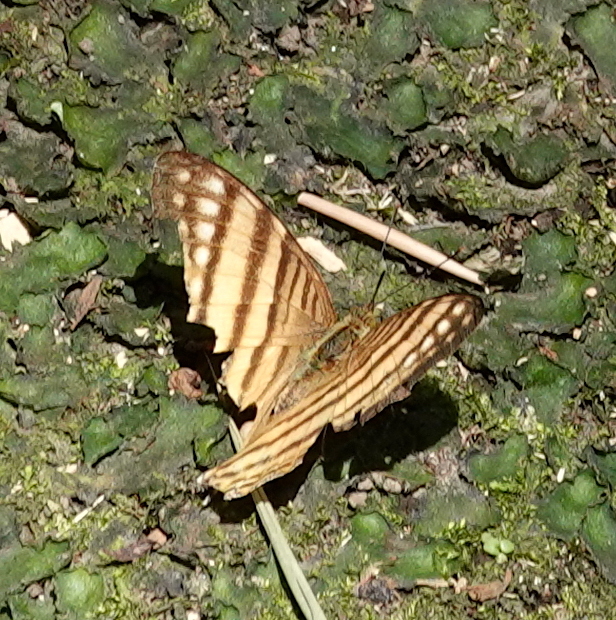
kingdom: Animalia
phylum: Arthropoda
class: Insecta
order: Lepidoptera
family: Nymphalidae
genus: Marpesia
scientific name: Marpesia berania
